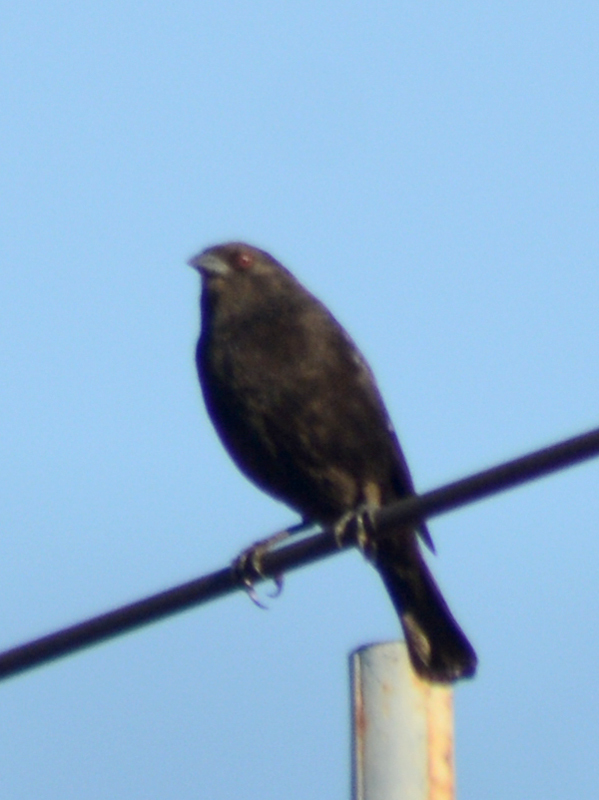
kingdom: Animalia
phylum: Chordata
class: Aves
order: Passeriformes
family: Icteridae
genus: Molothrus
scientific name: Molothrus aeneus
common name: Bronzed cowbird
